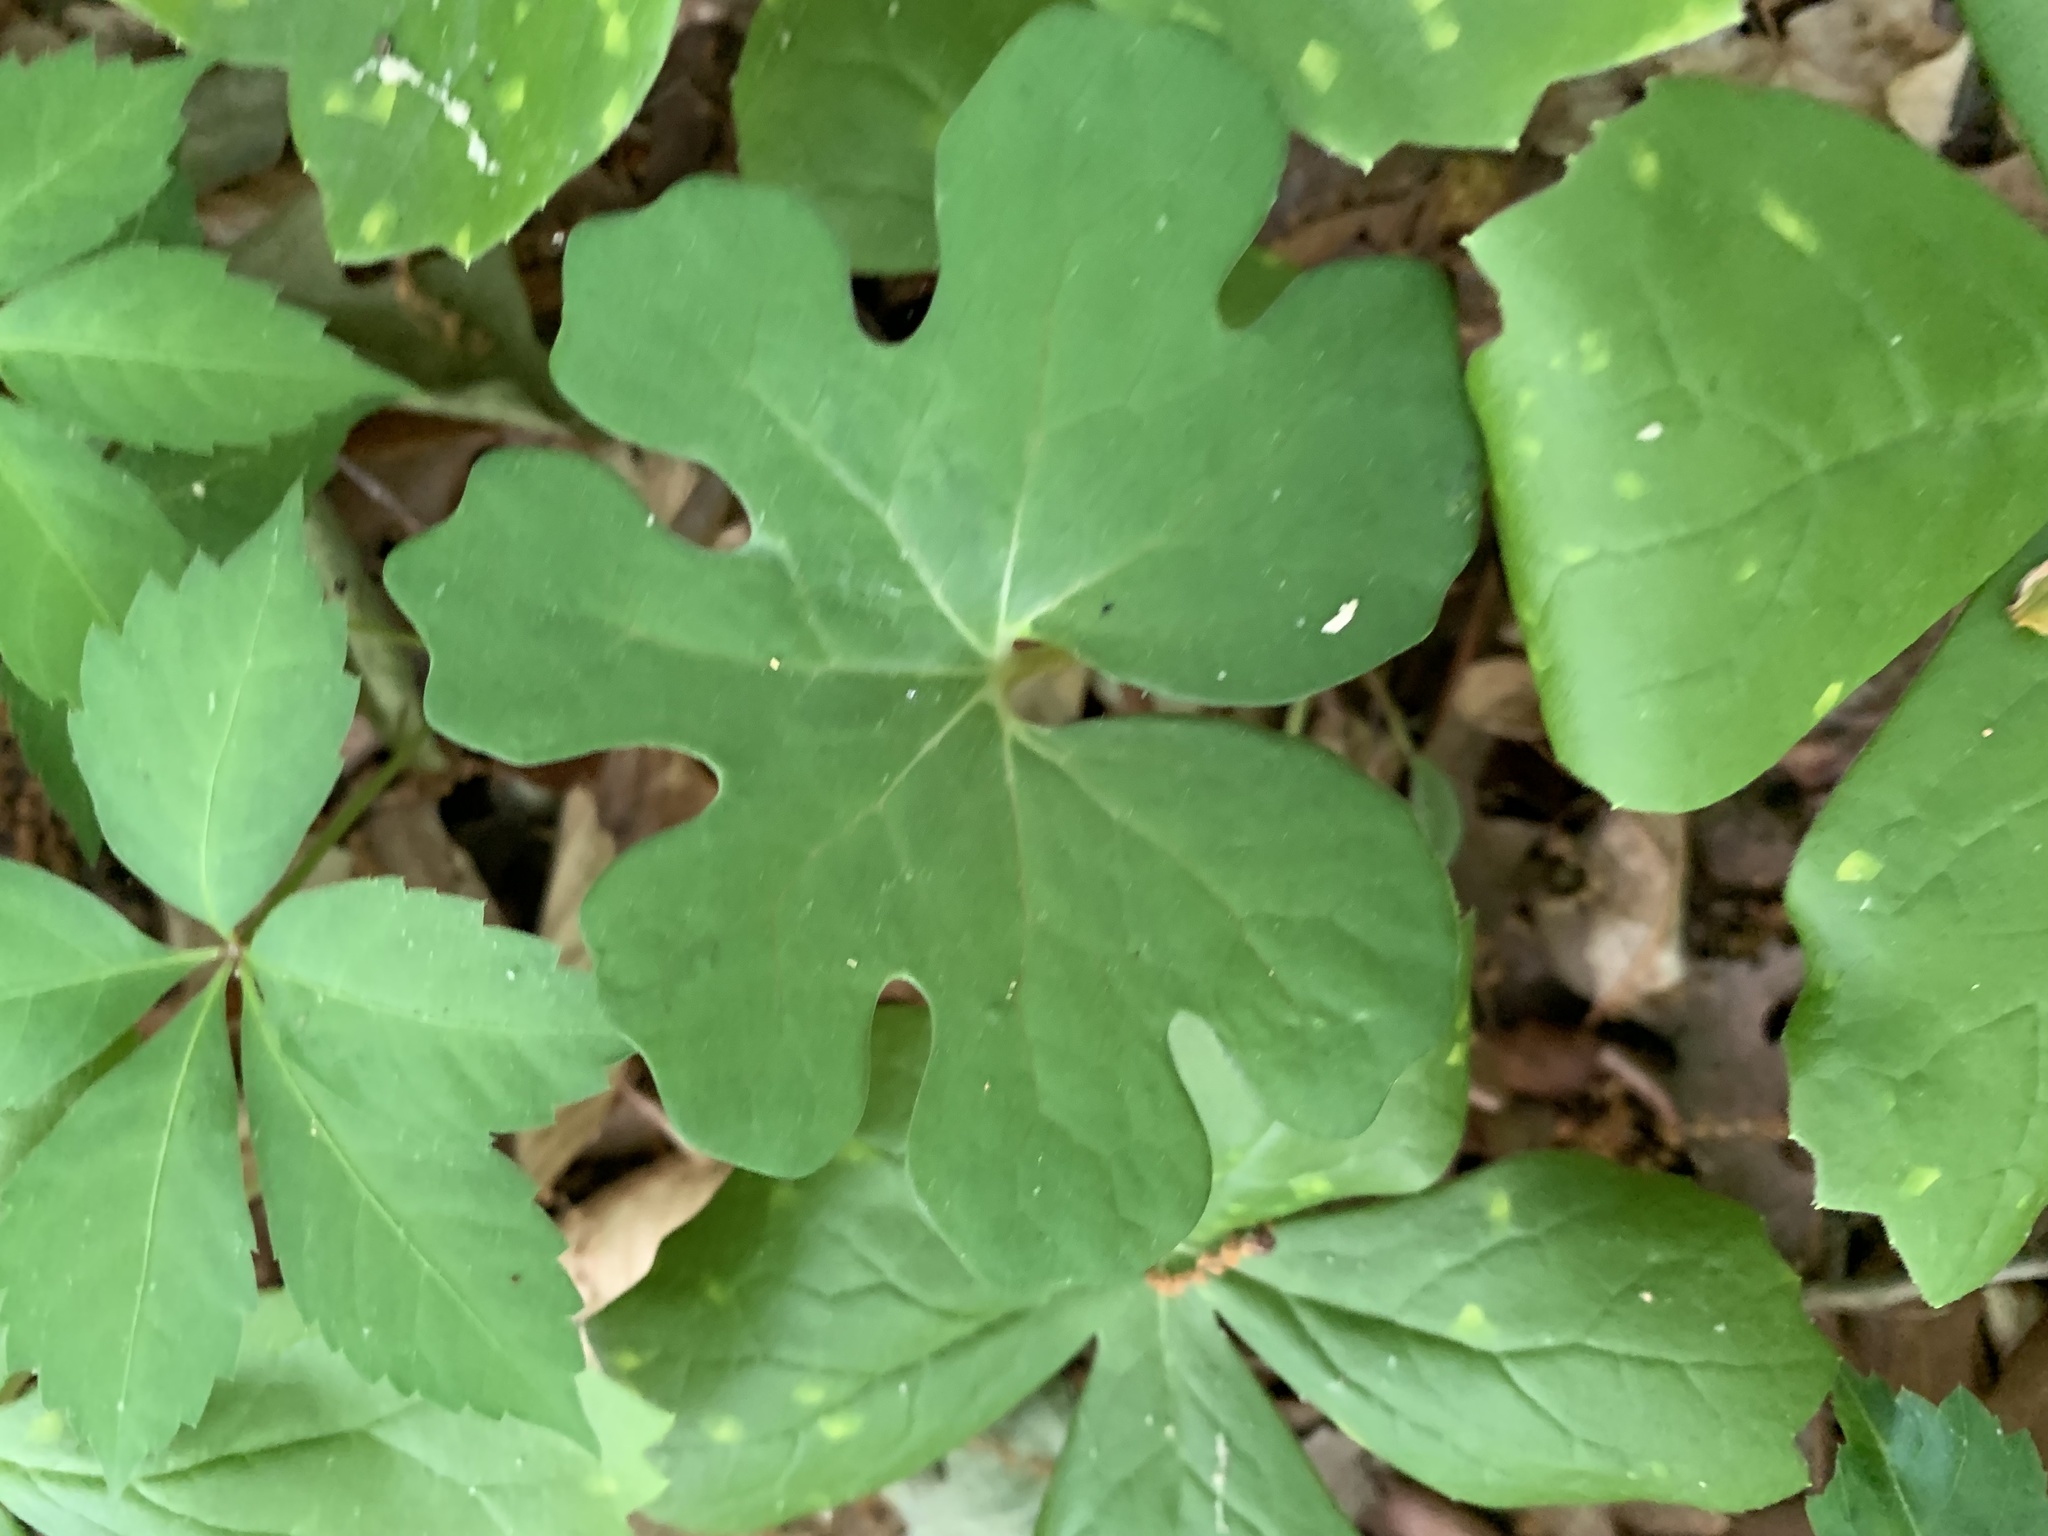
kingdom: Plantae
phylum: Tracheophyta
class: Magnoliopsida
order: Ranunculales
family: Papaveraceae
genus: Sanguinaria
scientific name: Sanguinaria canadensis
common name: Bloodroot
